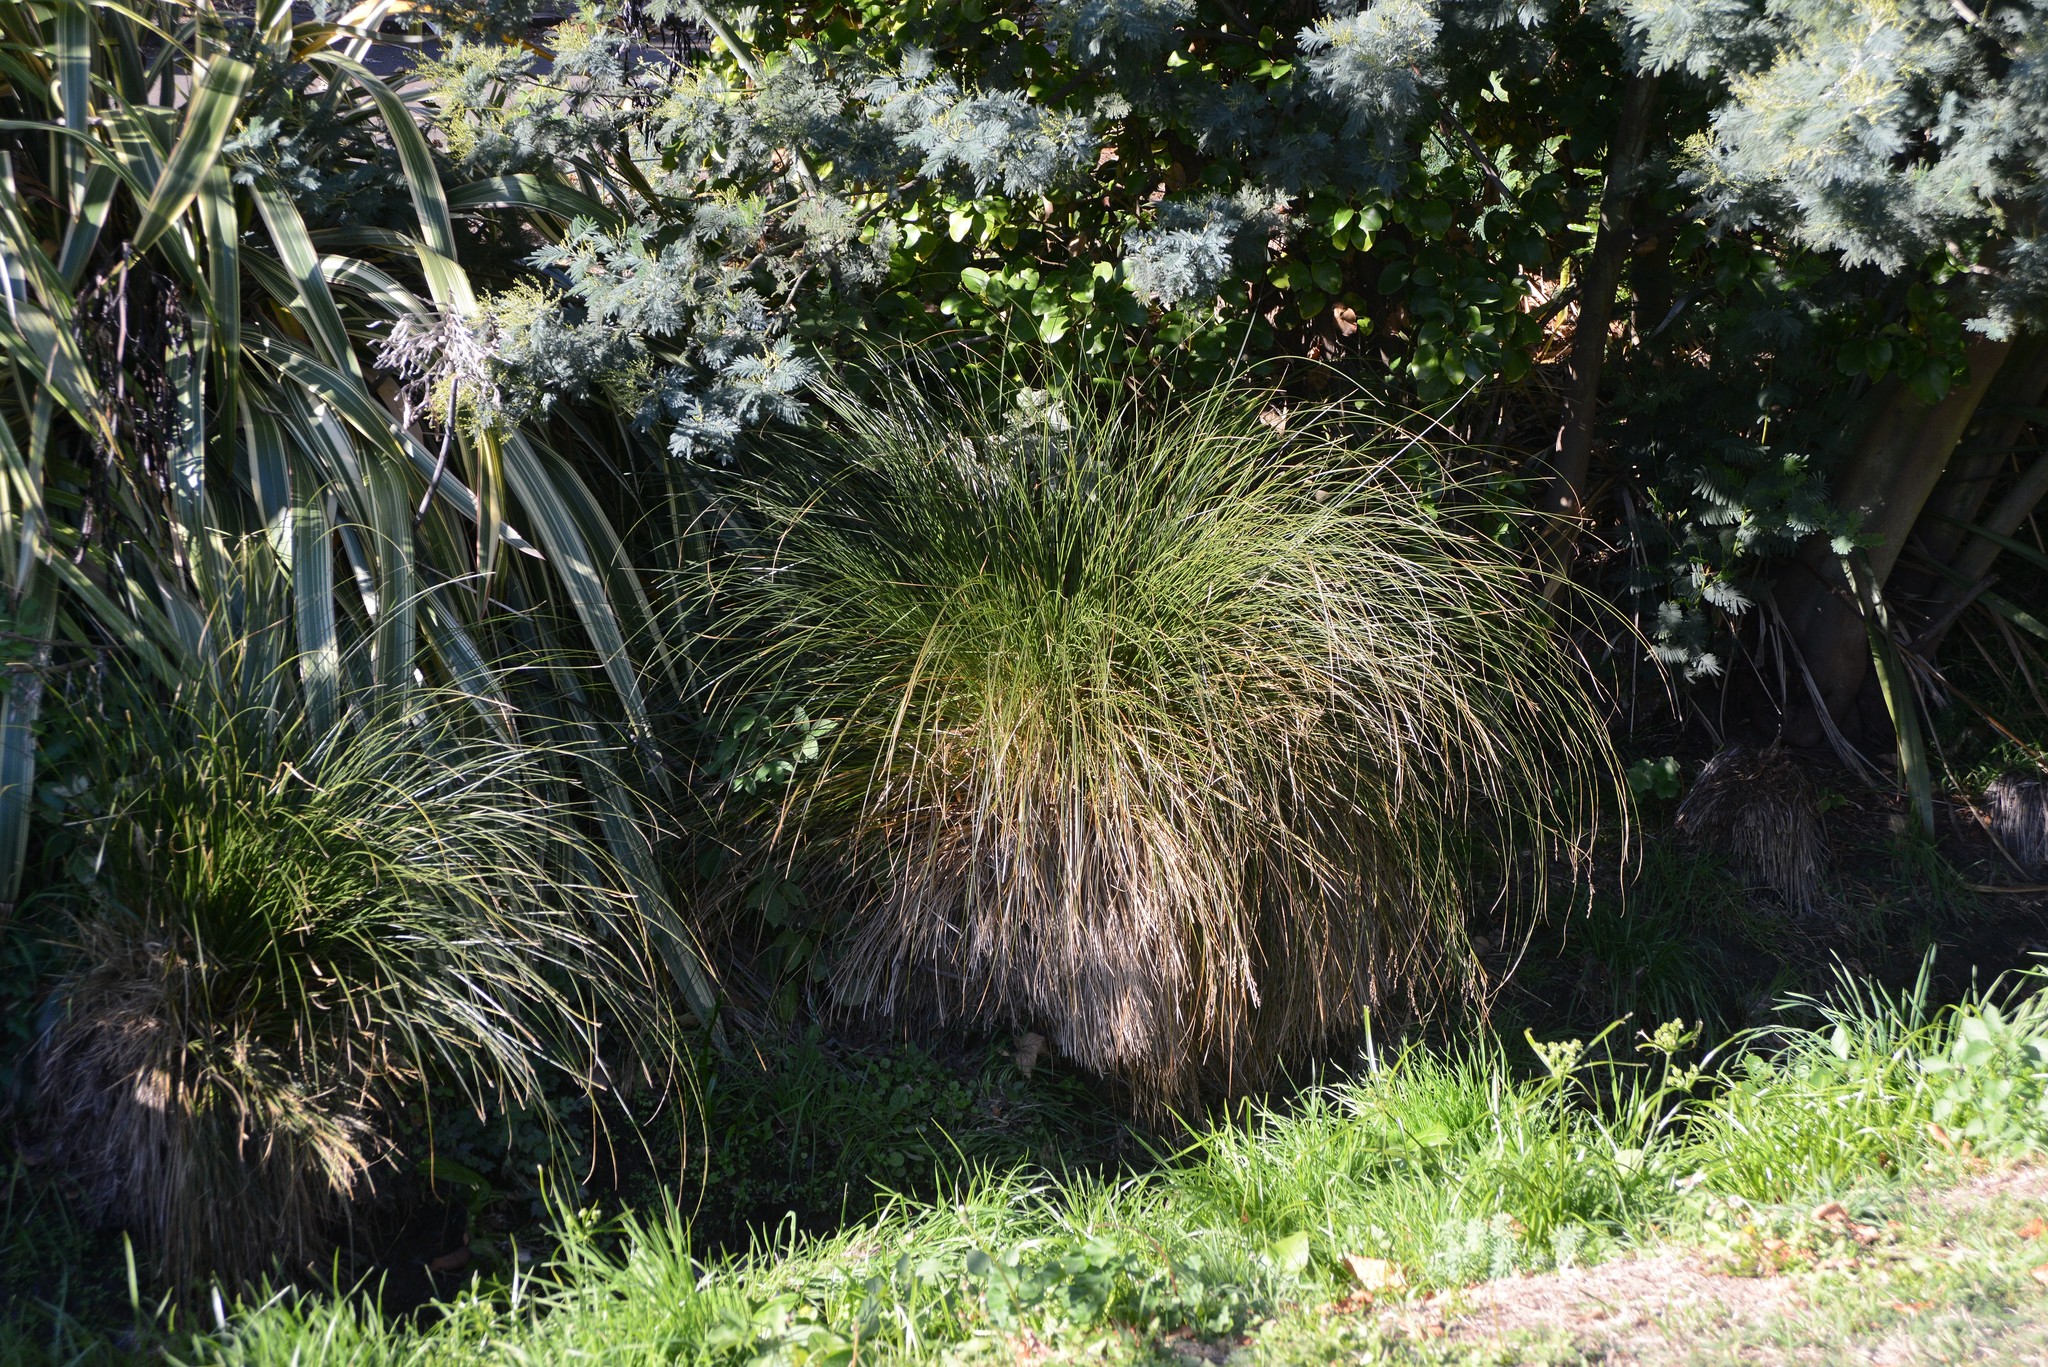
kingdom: Plantae
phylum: Tracheophyta
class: Liliopsida
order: Poales
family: Cyperaceae
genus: Carex
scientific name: Carex secta
